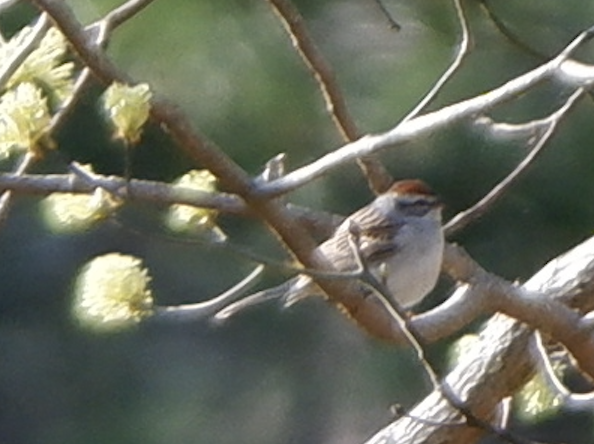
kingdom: Animalia
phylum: Chordata
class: Aves
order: Passeriformes
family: Passerellidae
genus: Spizella
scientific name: Spizella passerina
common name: Chipping sparrow
